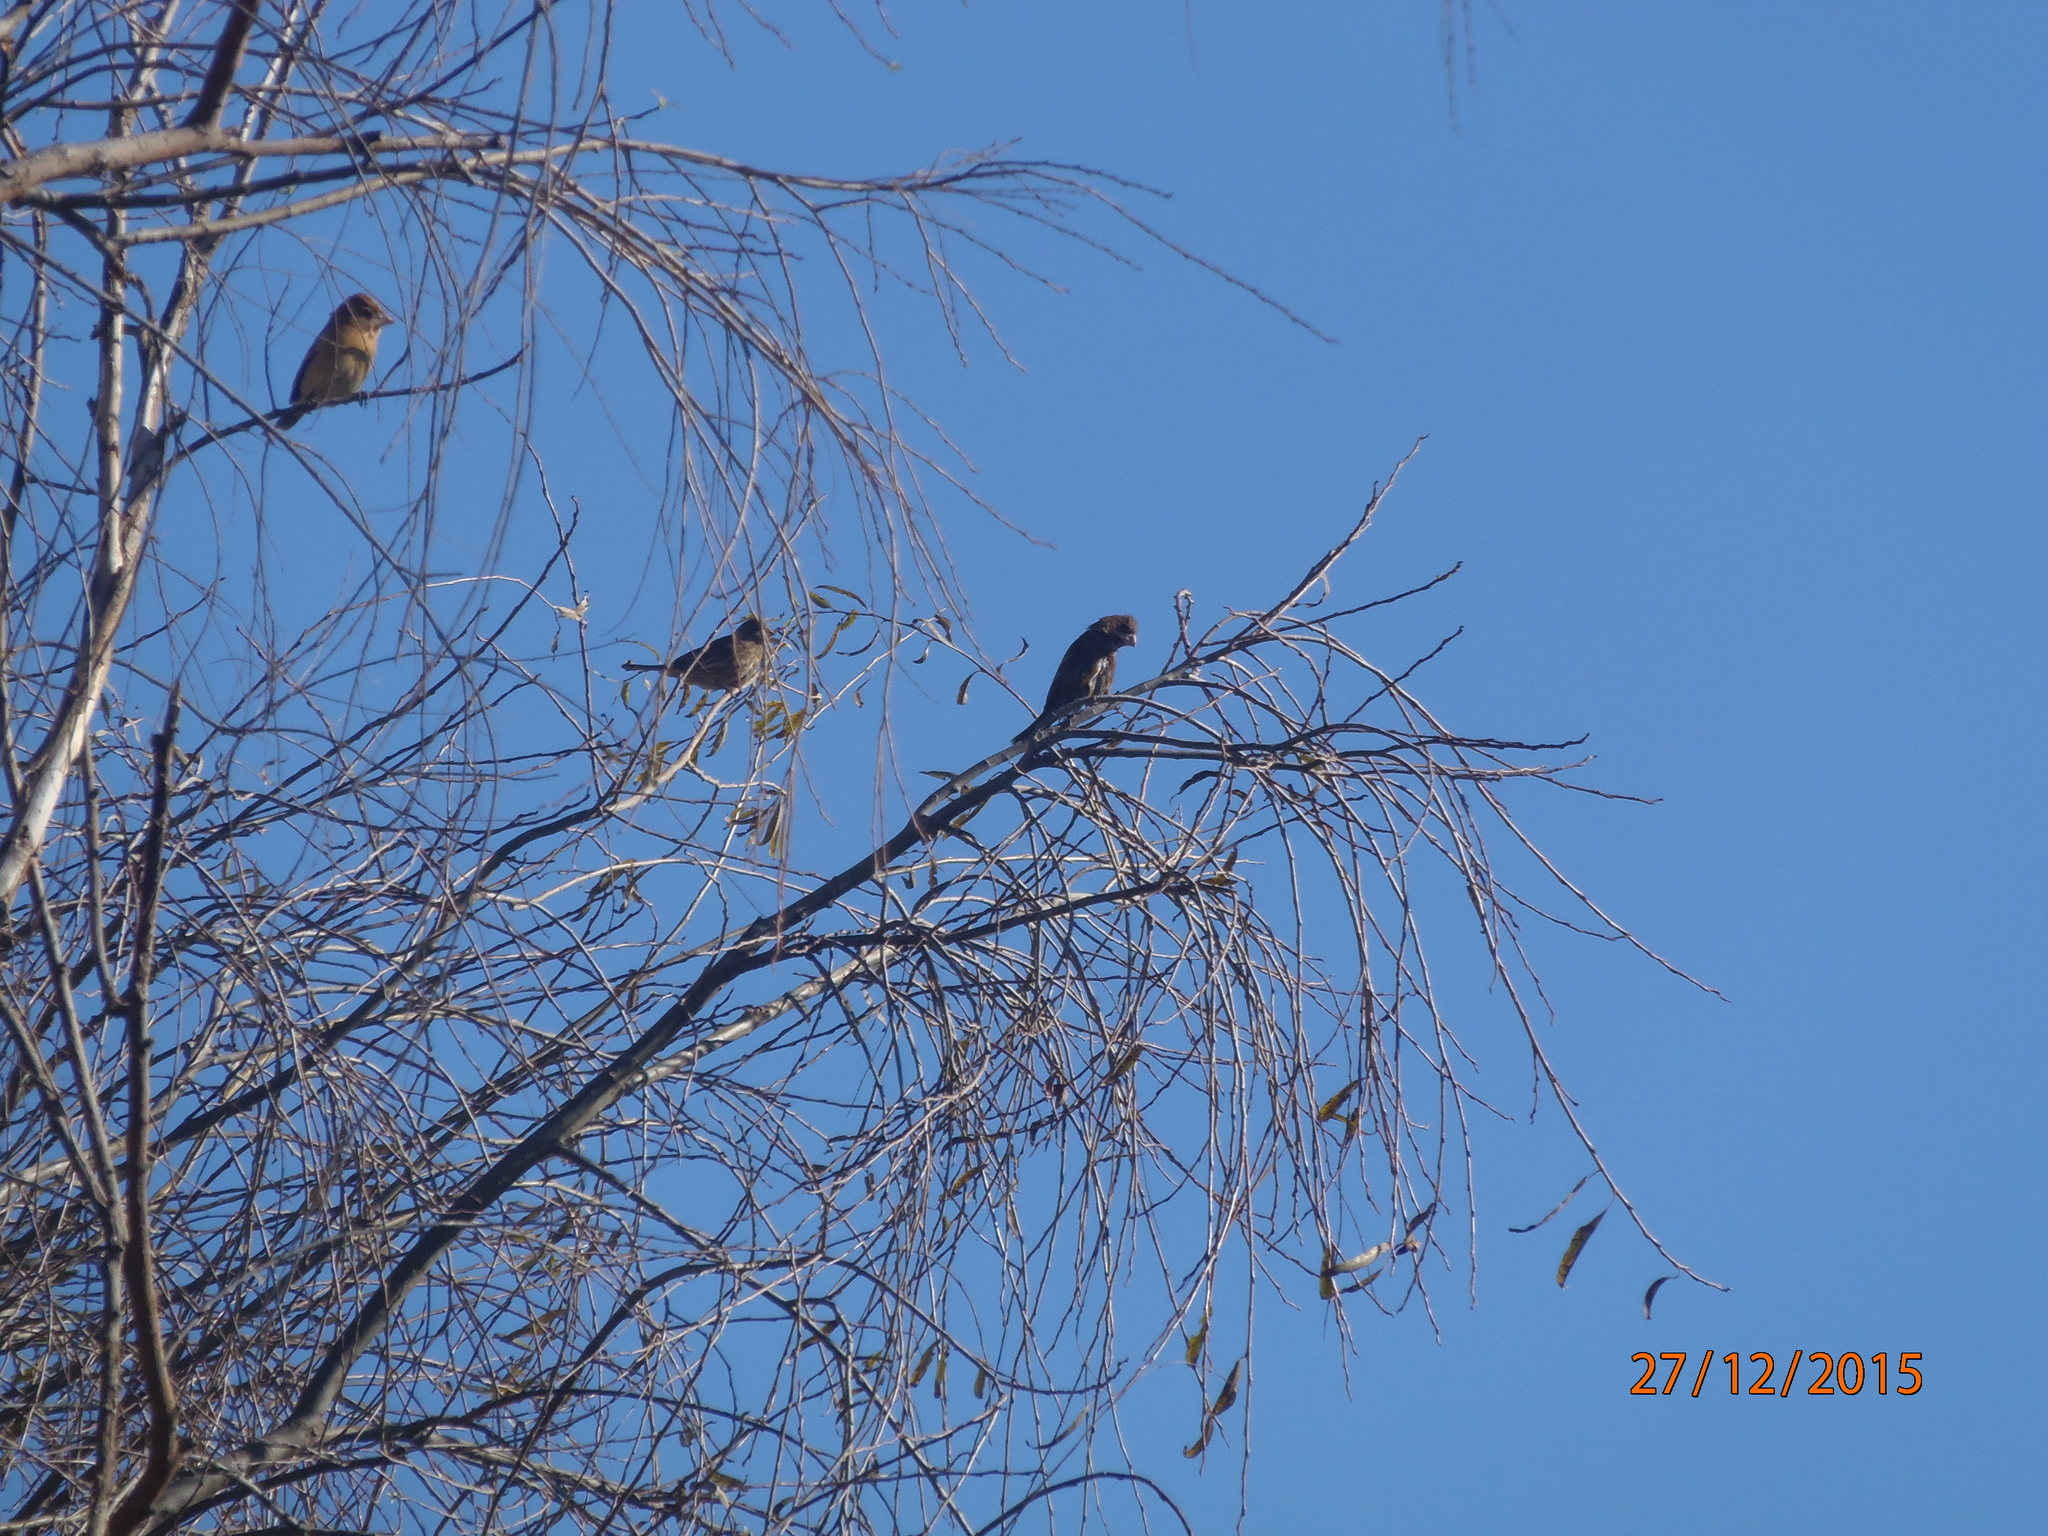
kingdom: Animalia
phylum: Chordata
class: Aves
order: Passeriformes
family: Cardinalidae
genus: Passerina
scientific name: Passerina caerulea
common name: Blue grosbeak
